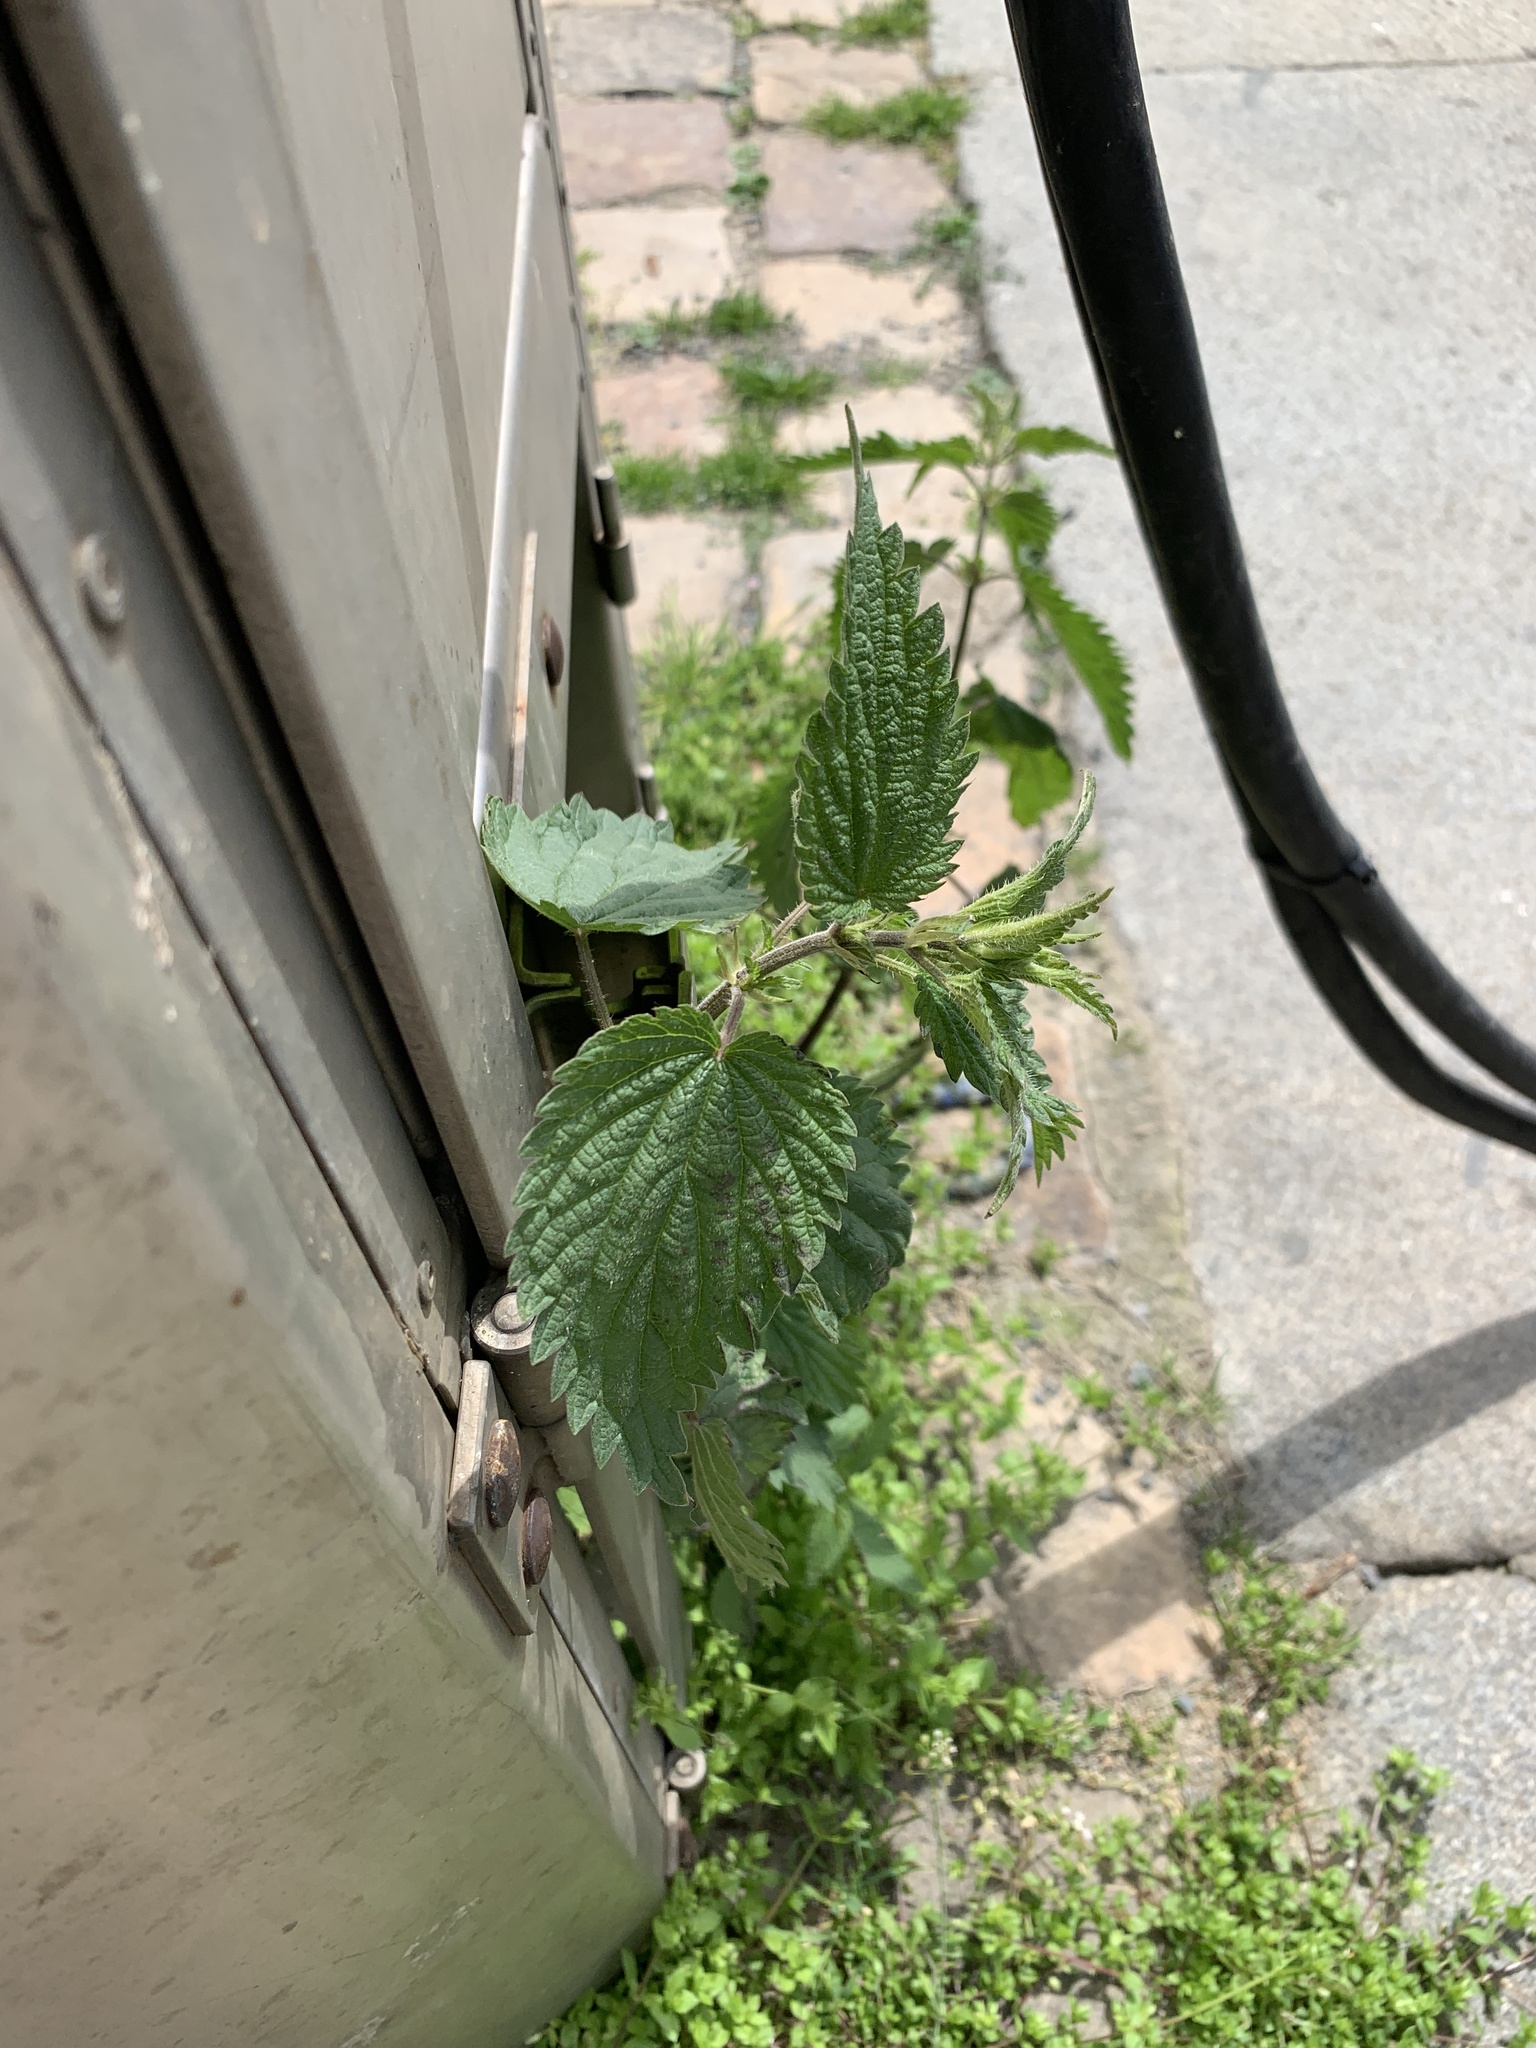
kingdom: Plantae
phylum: Tracheophyta
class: Magnoliopsida
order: Rosales
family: Urticaceae
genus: Urtica
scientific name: Urtica dioica
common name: Common nettle
